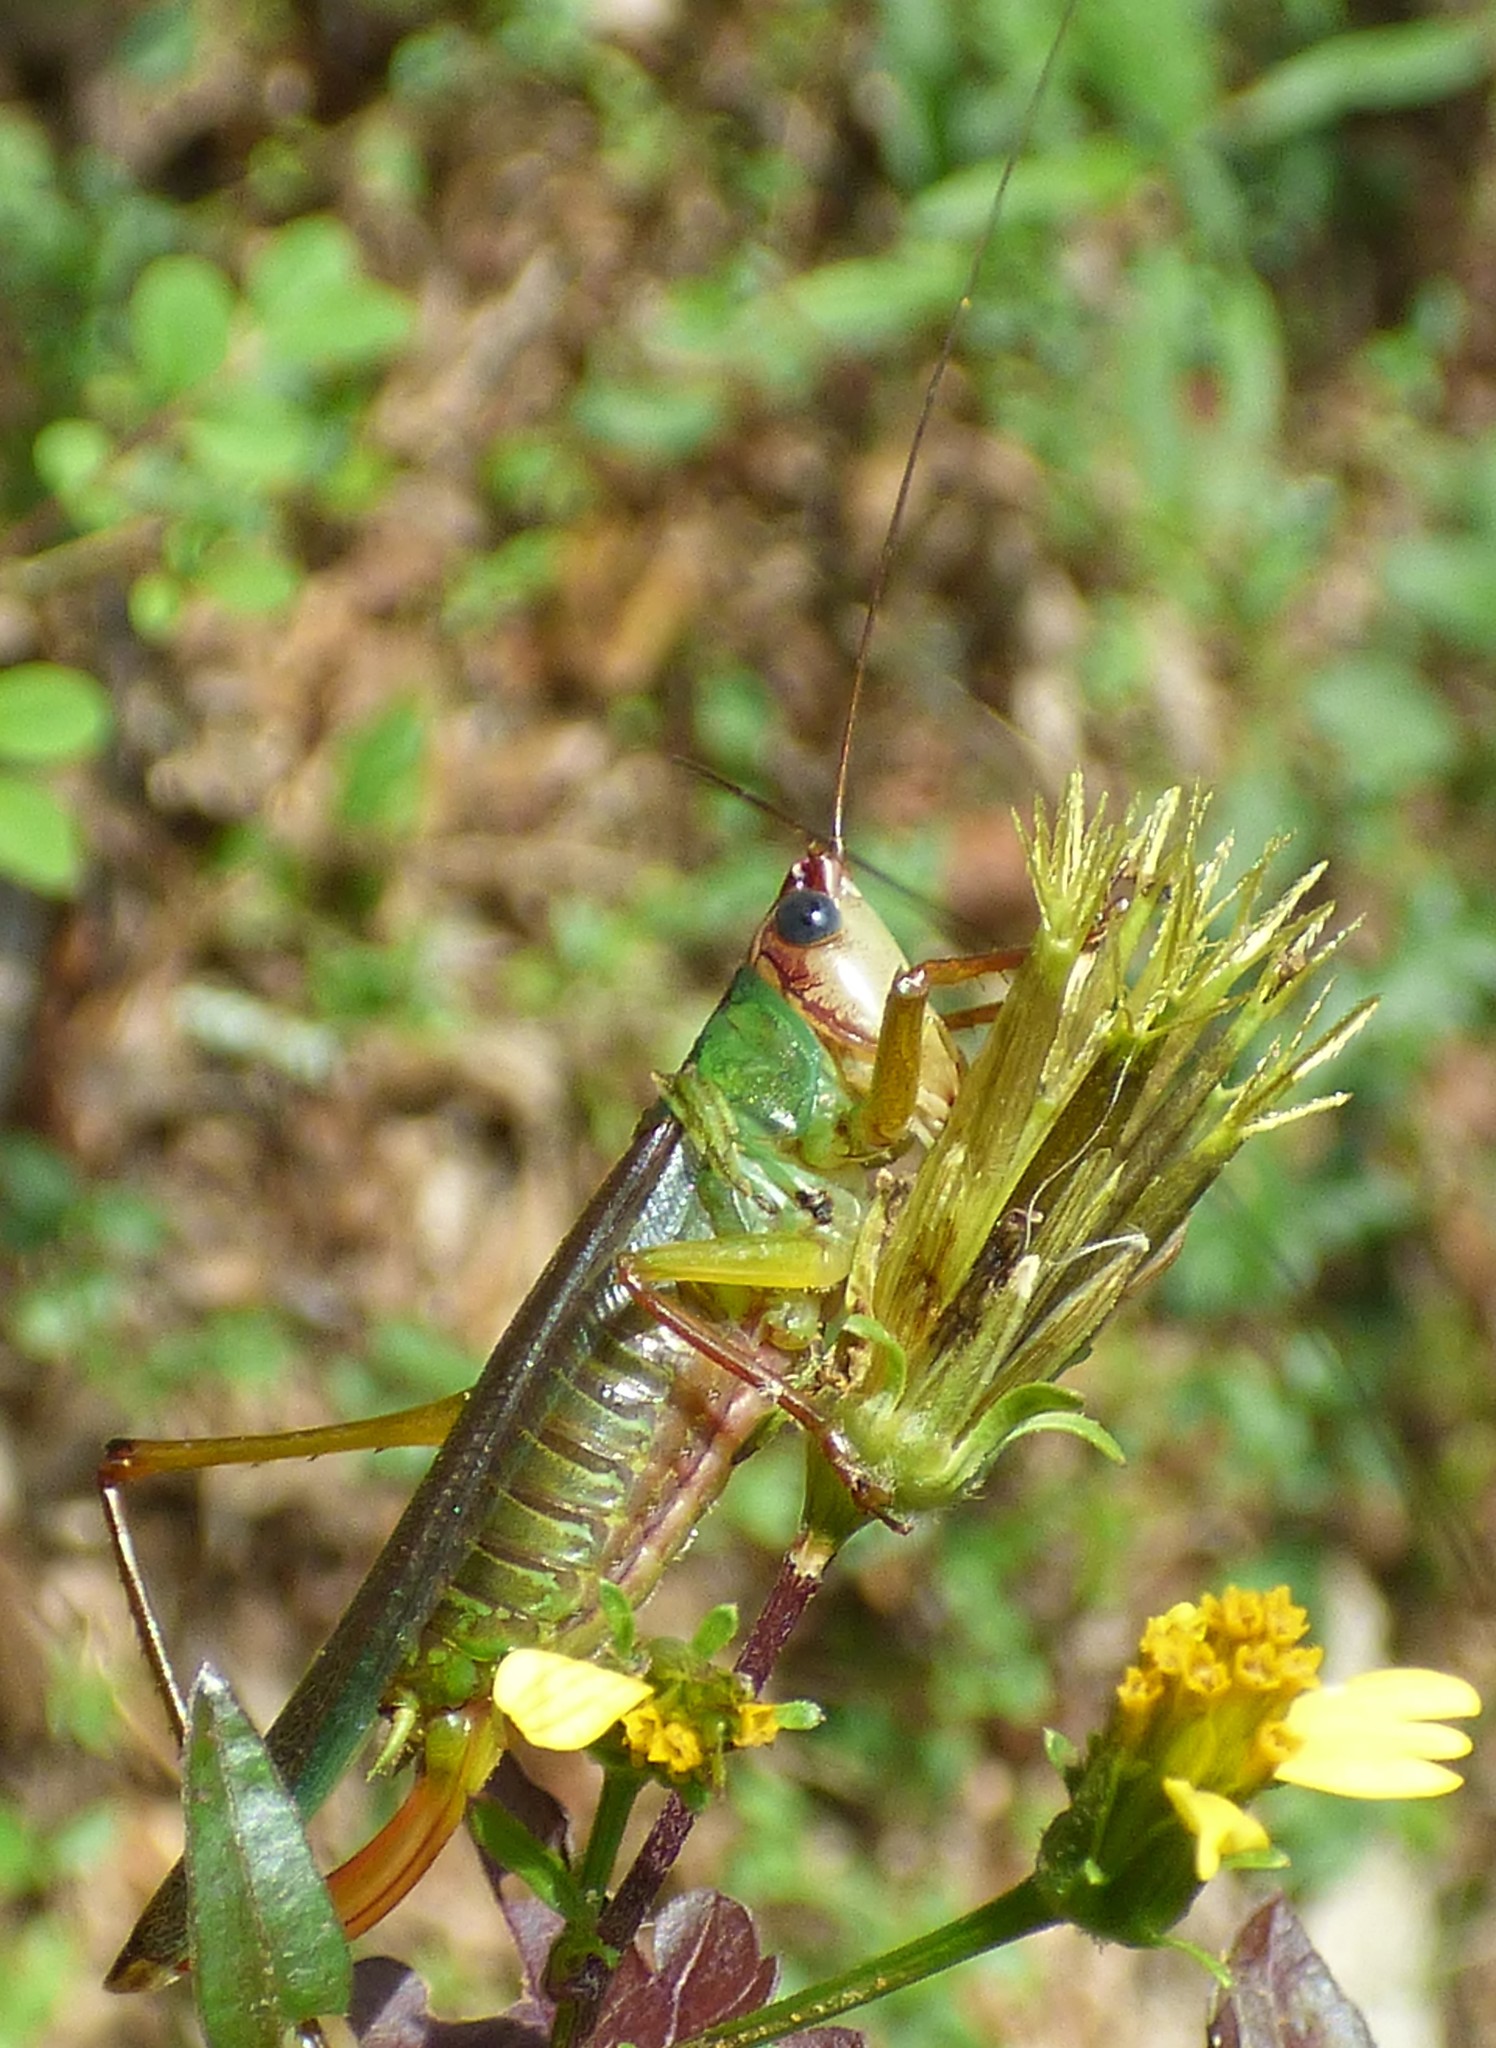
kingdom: Animalia
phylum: Arthropoda
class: Insecta
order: Orthoptera
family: Tettigoniidae
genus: Orchelimum
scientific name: Orchelimum pulchellum
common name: Handsome meadow katydid
